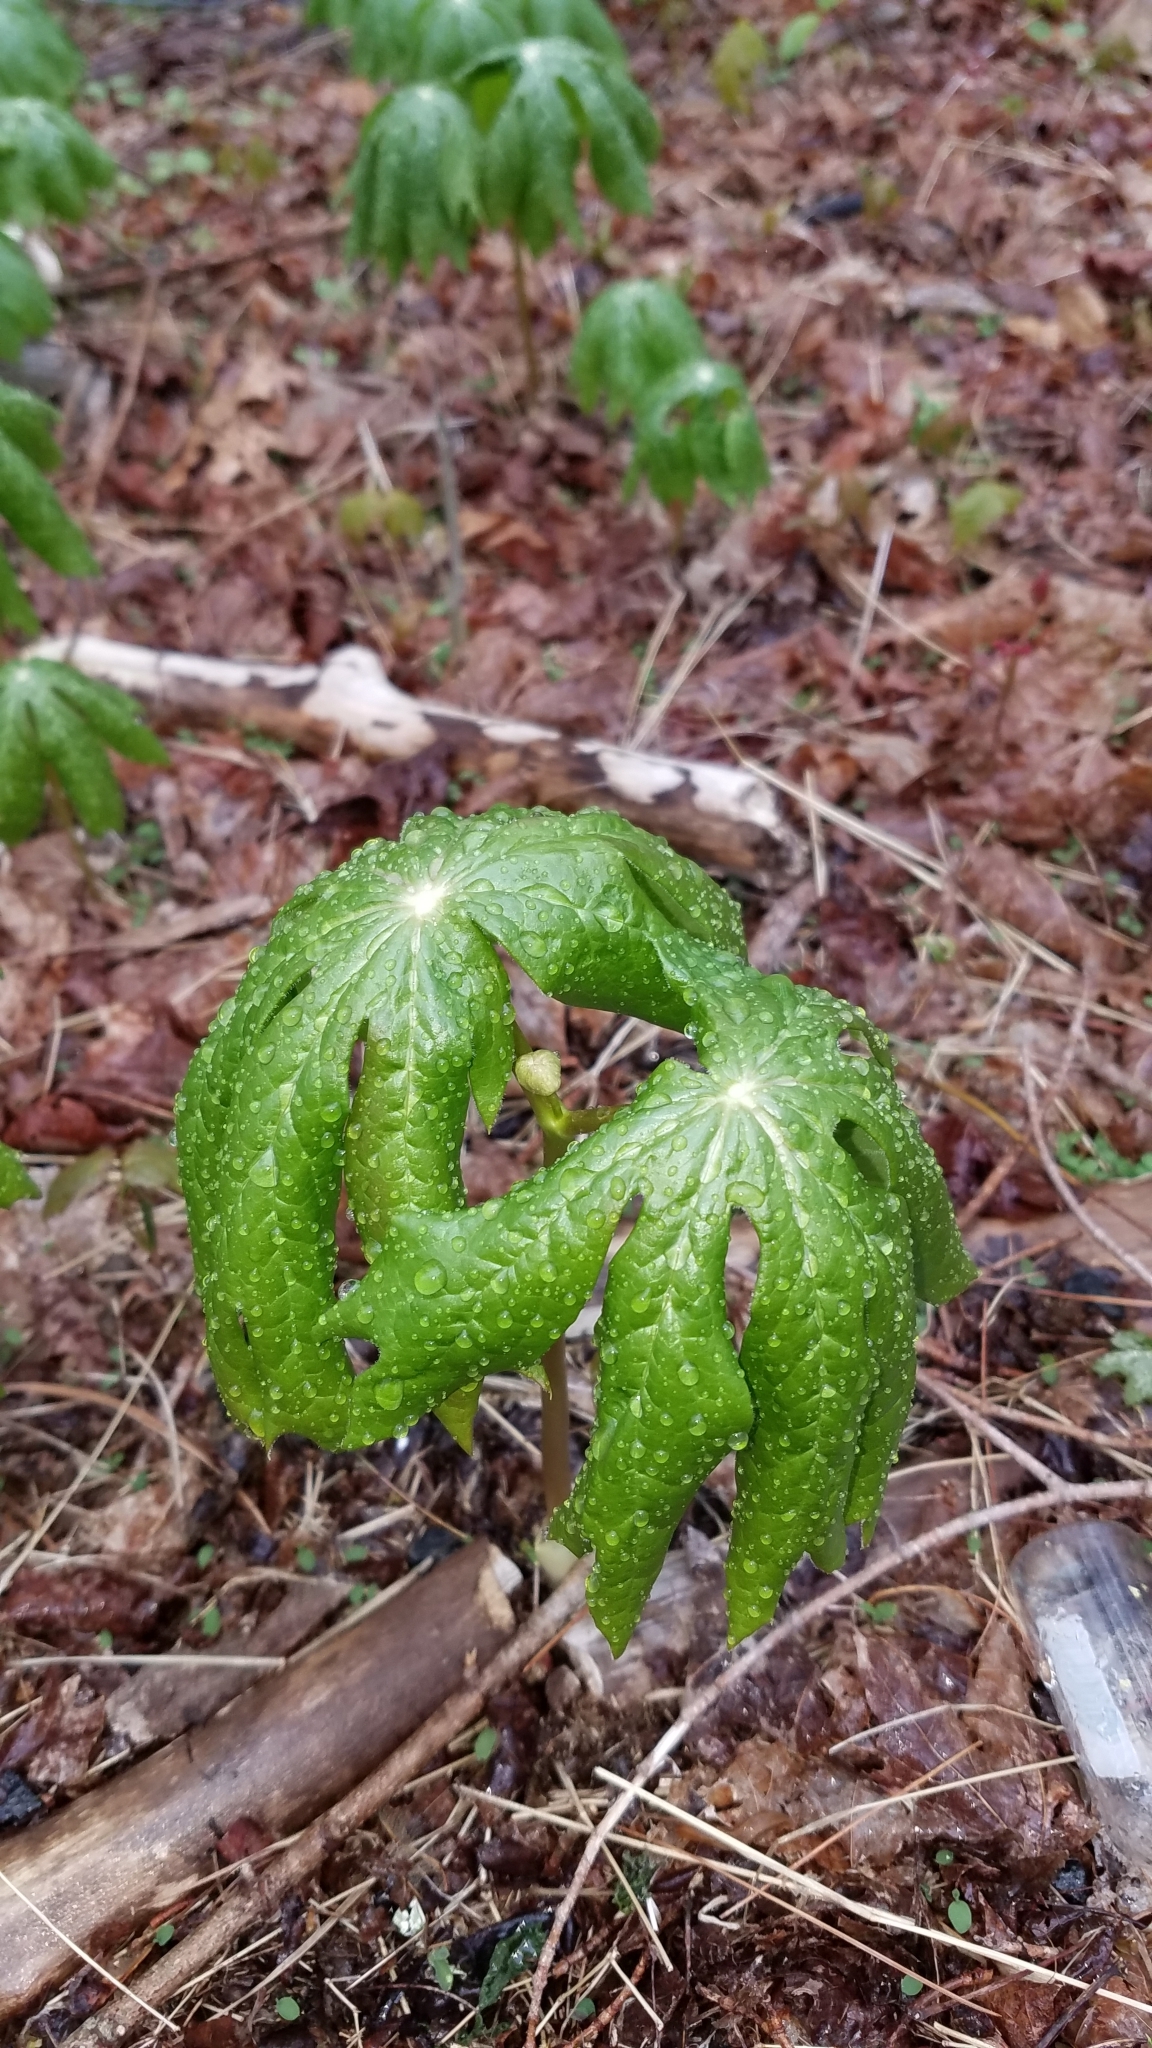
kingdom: Plantae
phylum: Tracheophyta
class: Magnoliopsida
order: Ranunculales
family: Berberidaceae
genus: Podophyllum
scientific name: Podophyllum peltatum
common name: Wild mandrake
